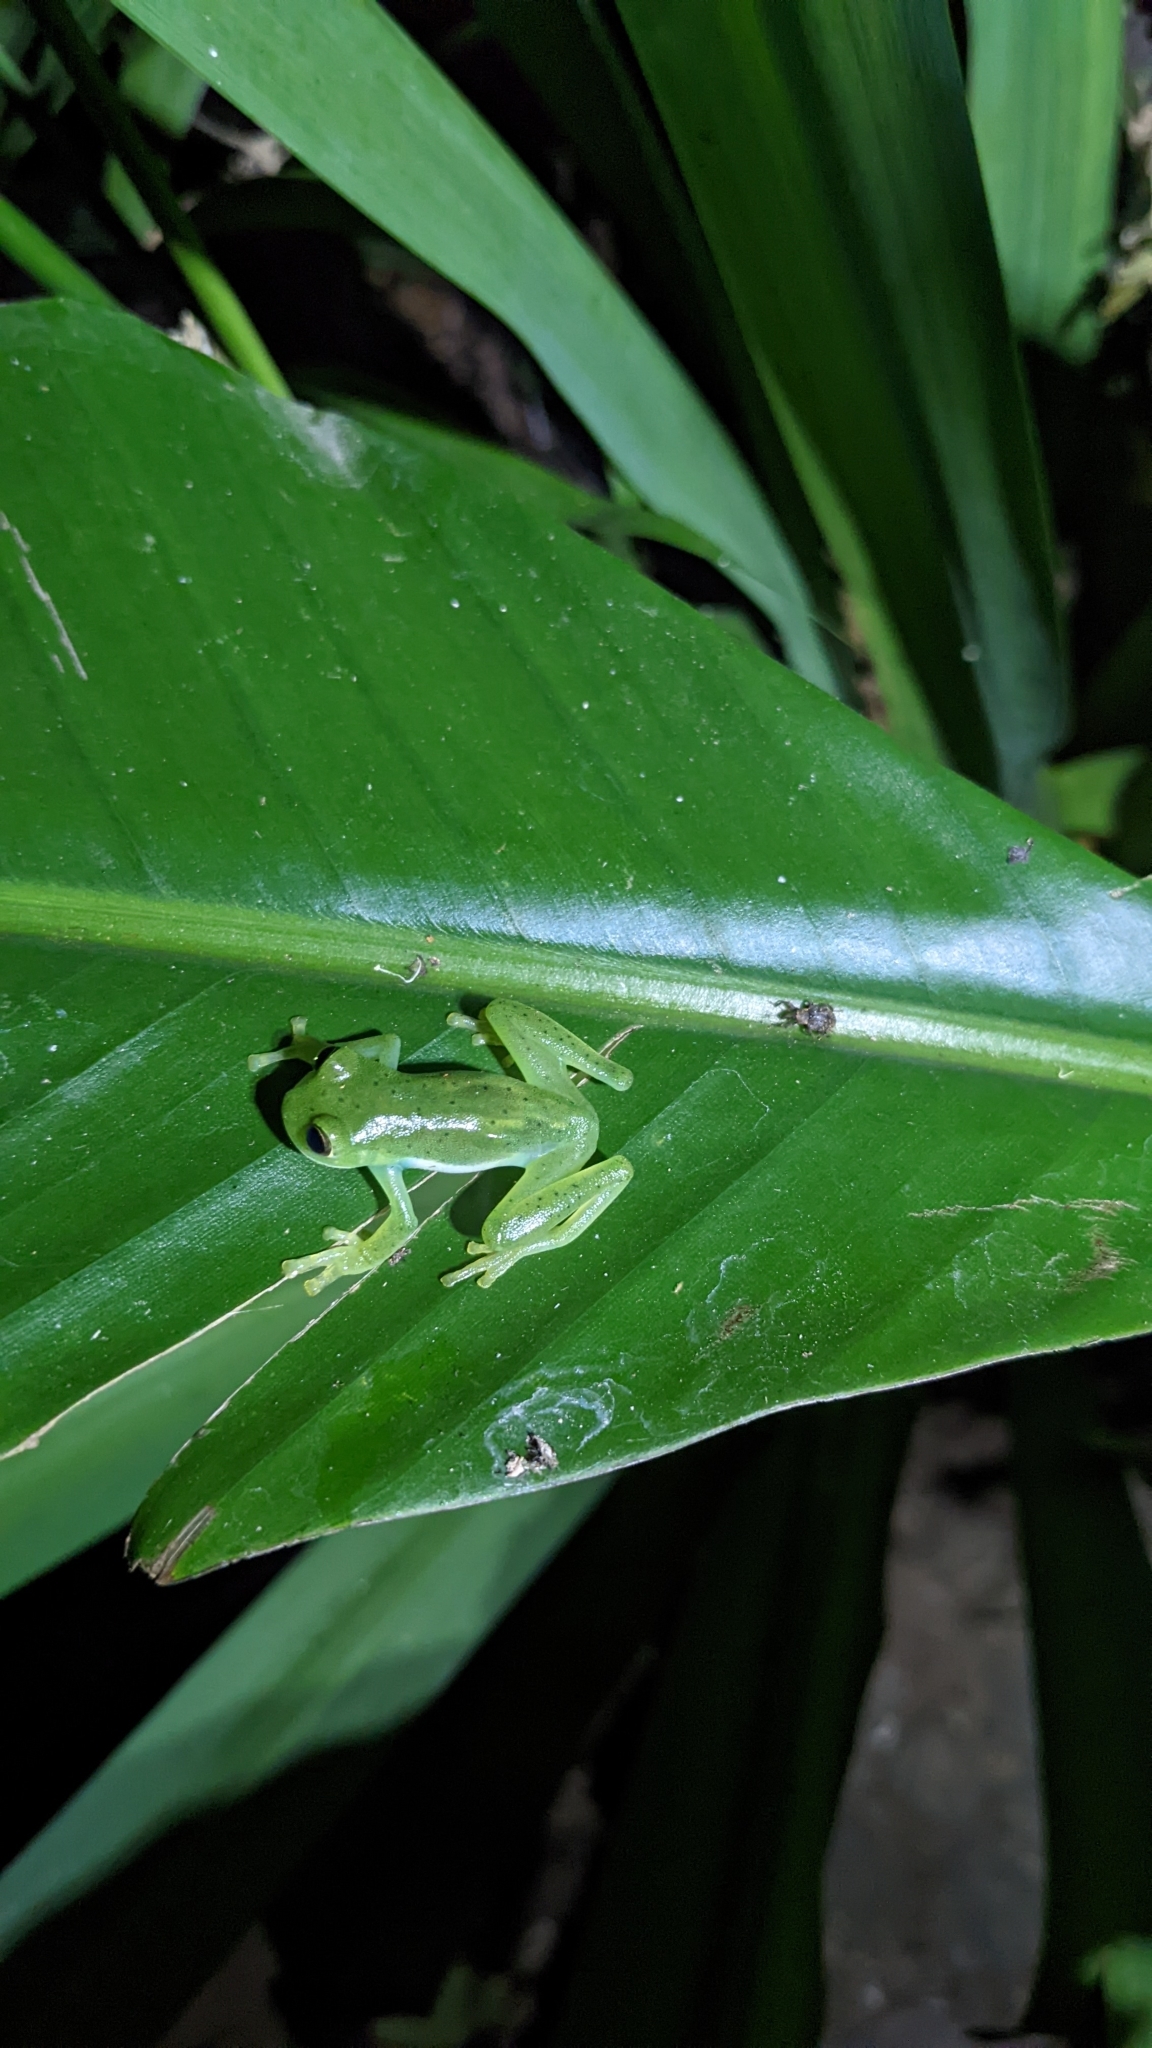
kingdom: Animalia
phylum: Chordata
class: Amphibia
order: Anura
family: Centrolenidae
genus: Espadarana
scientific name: Espadarana prosoblepon
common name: Rana de cristal variable
